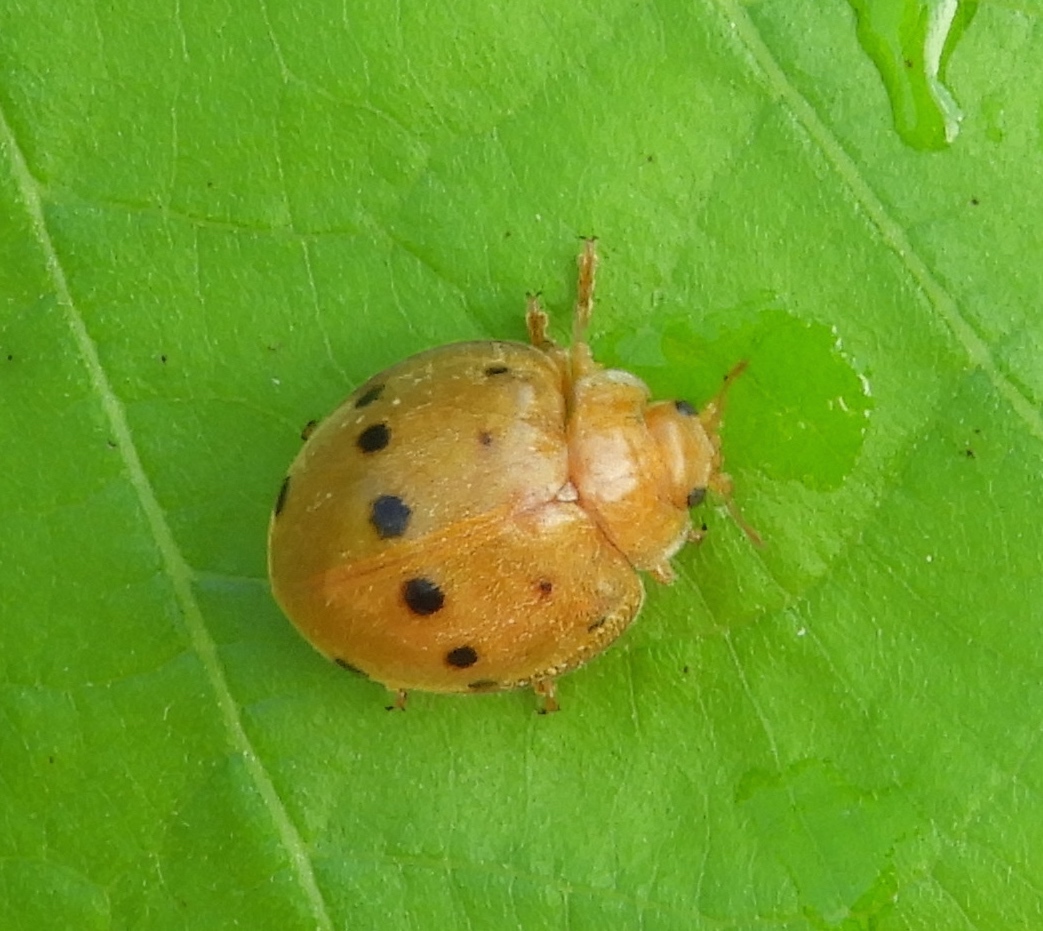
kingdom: Animalia
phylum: Arthropoda
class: Insecta
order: Coleoptera
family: Coccinellidae
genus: Epilachna
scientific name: Epilachna tredecimnotata
